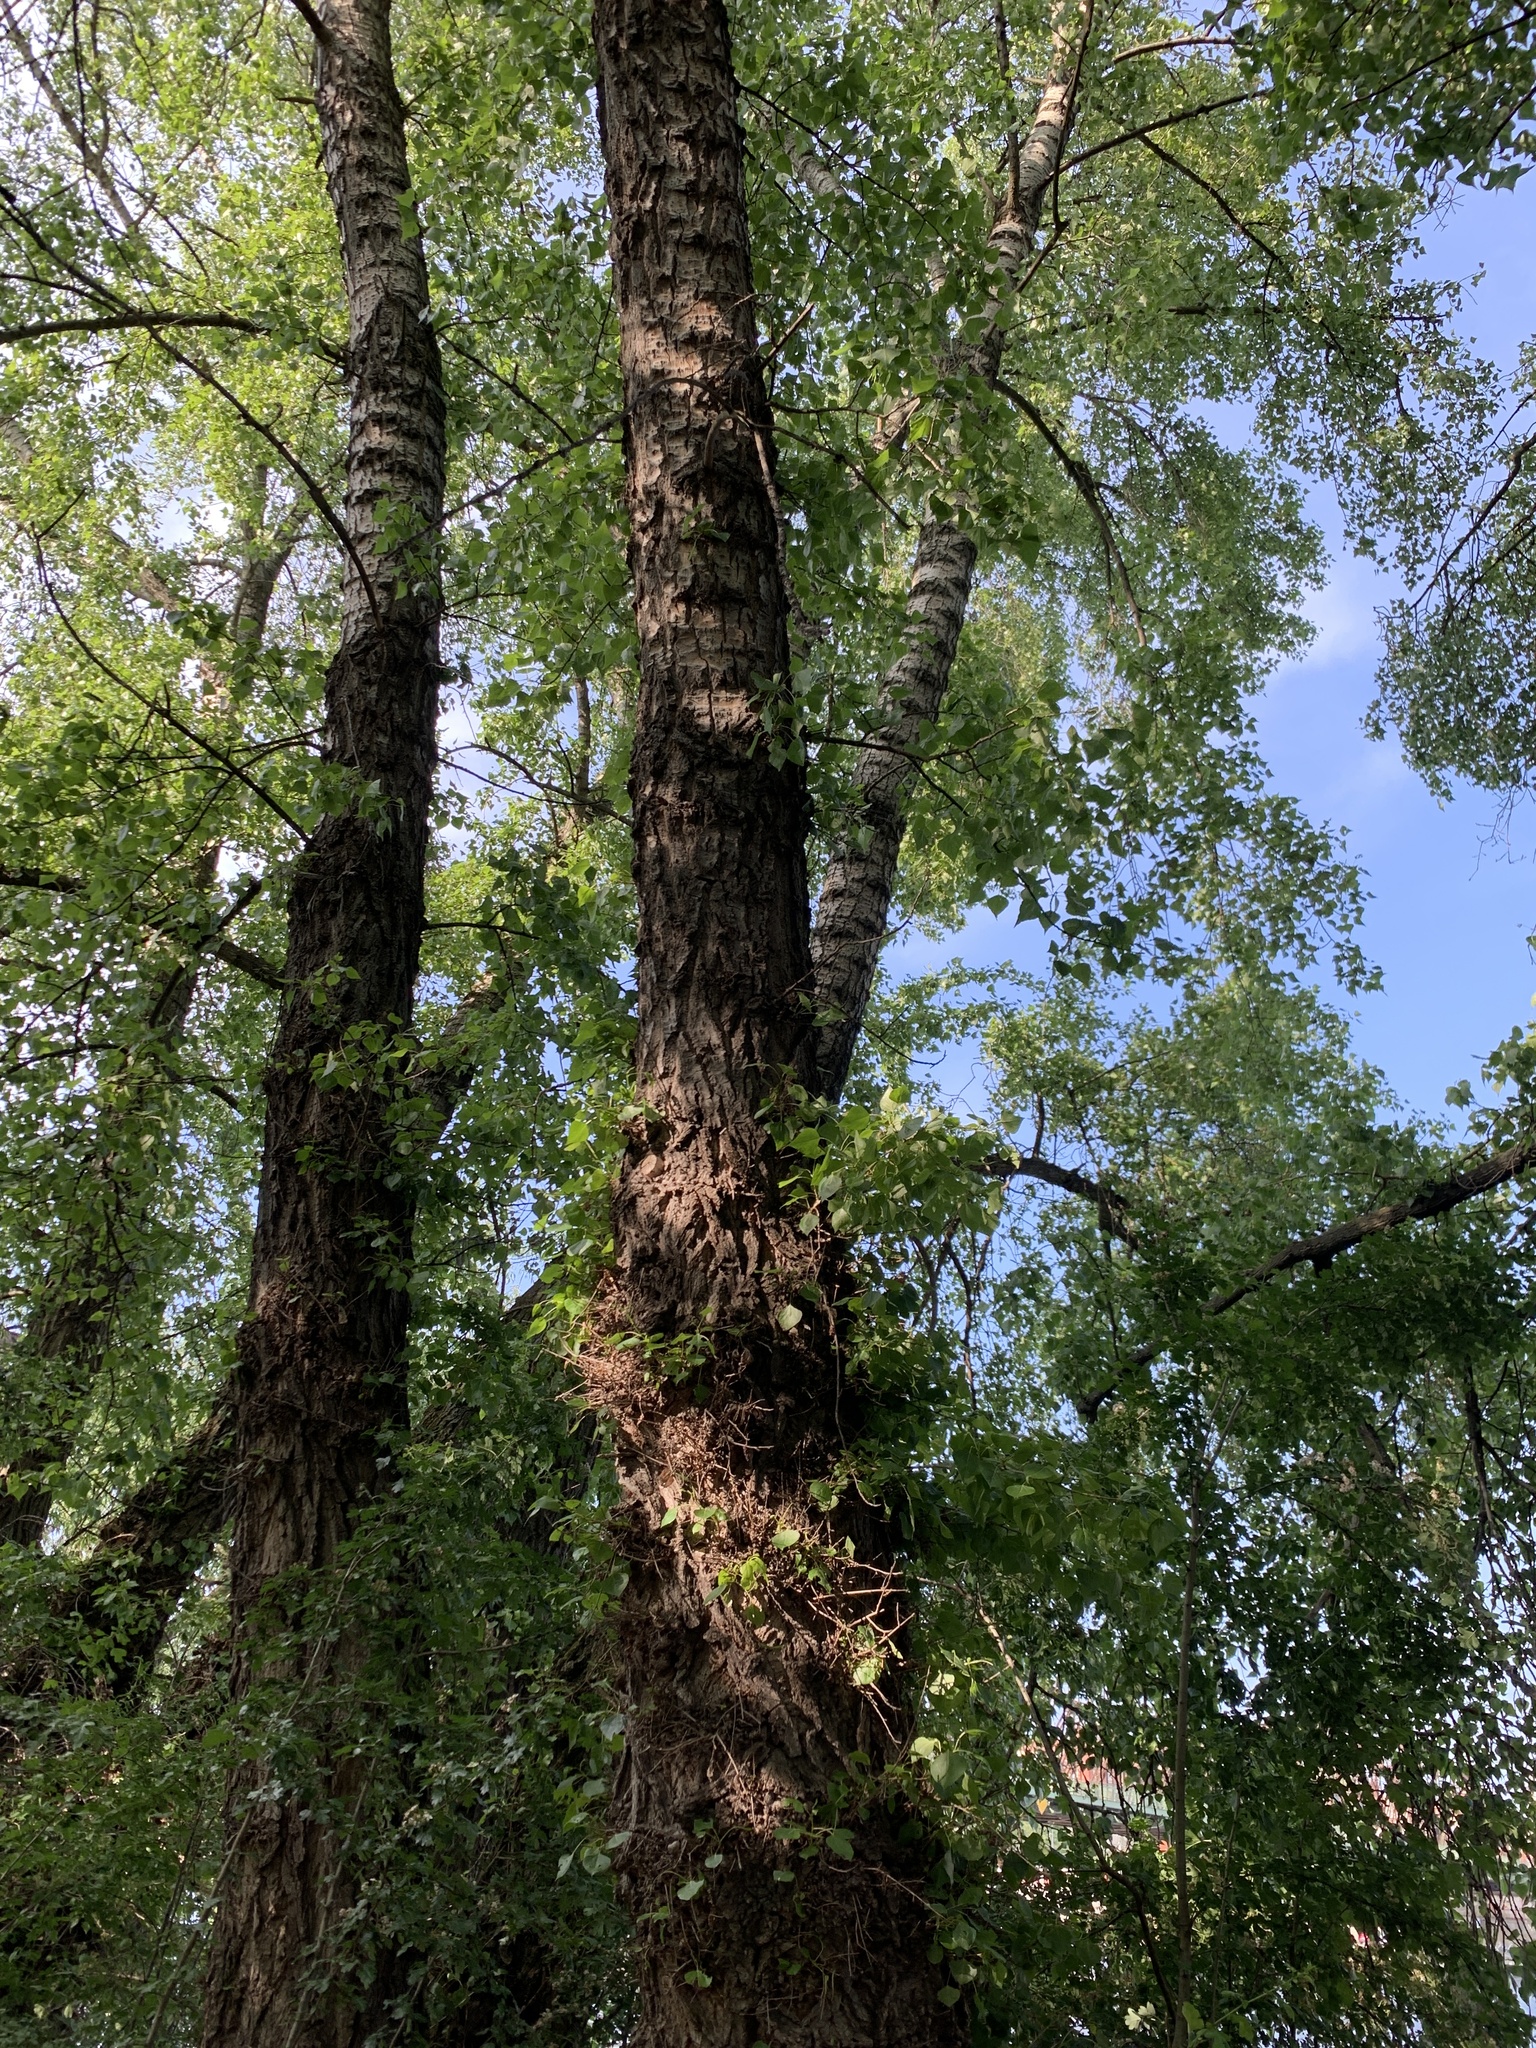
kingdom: Plantae
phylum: Tracheophyta
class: Magnoliopsida
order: Malpighiales
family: Salicaceae
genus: Populus
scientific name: Populus nigra
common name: Black poplar
